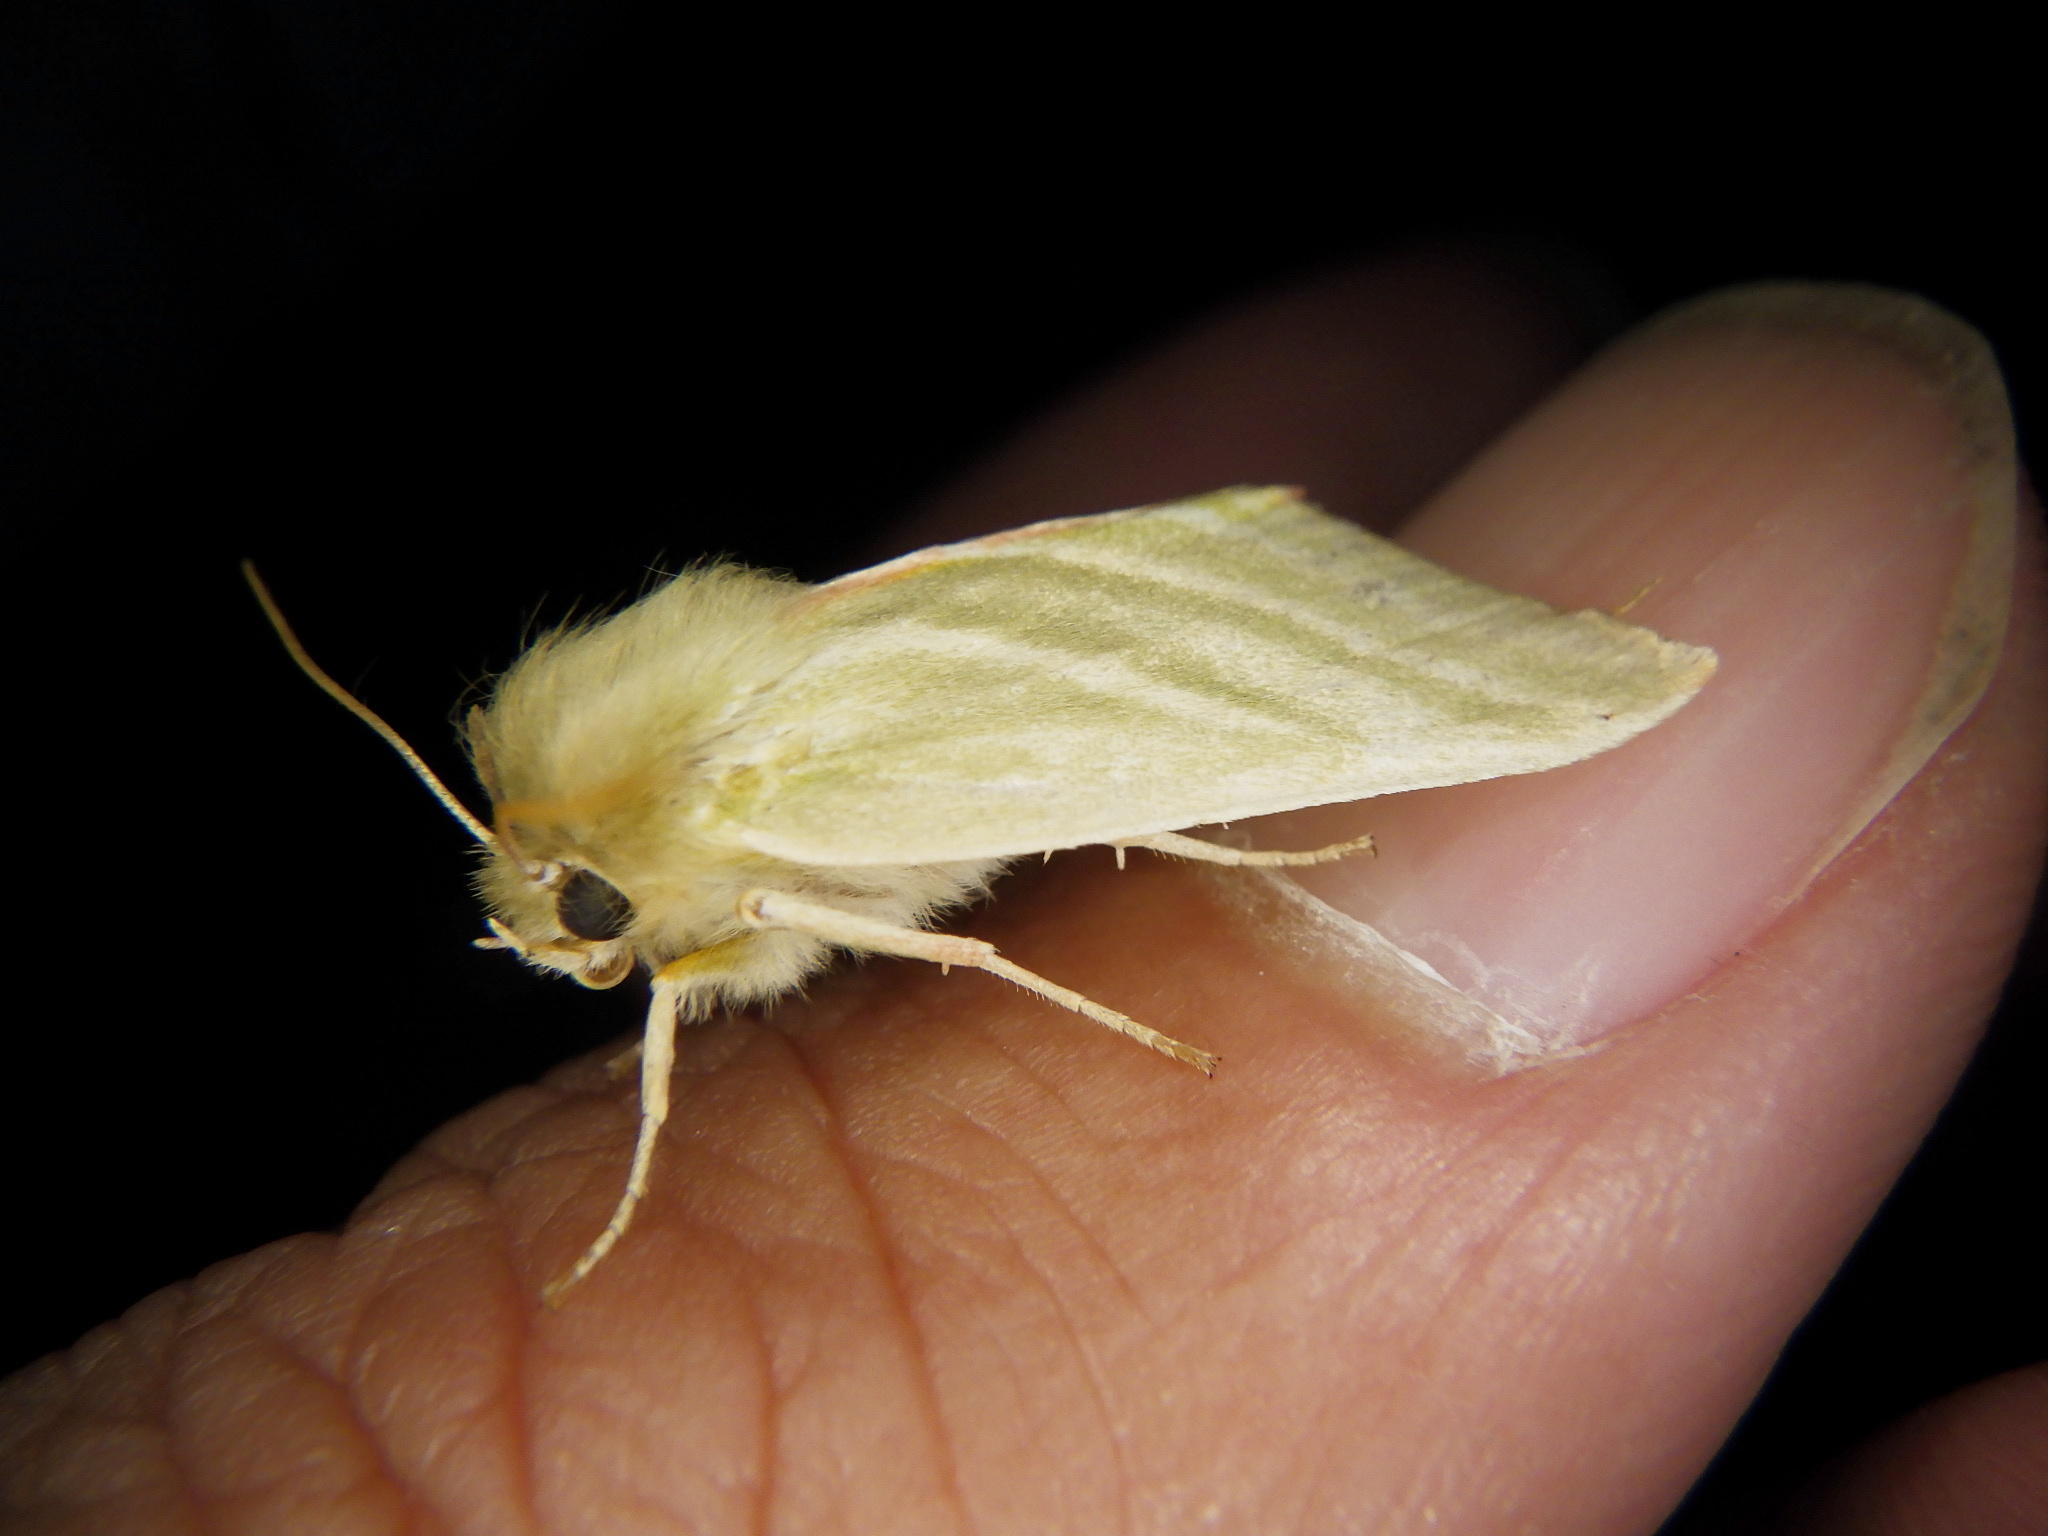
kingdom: Animalia
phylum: Arthropoda
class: Insecta
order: Lepidoptera
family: Nolidae
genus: Pseudoips
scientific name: Pseudoips sylpha
